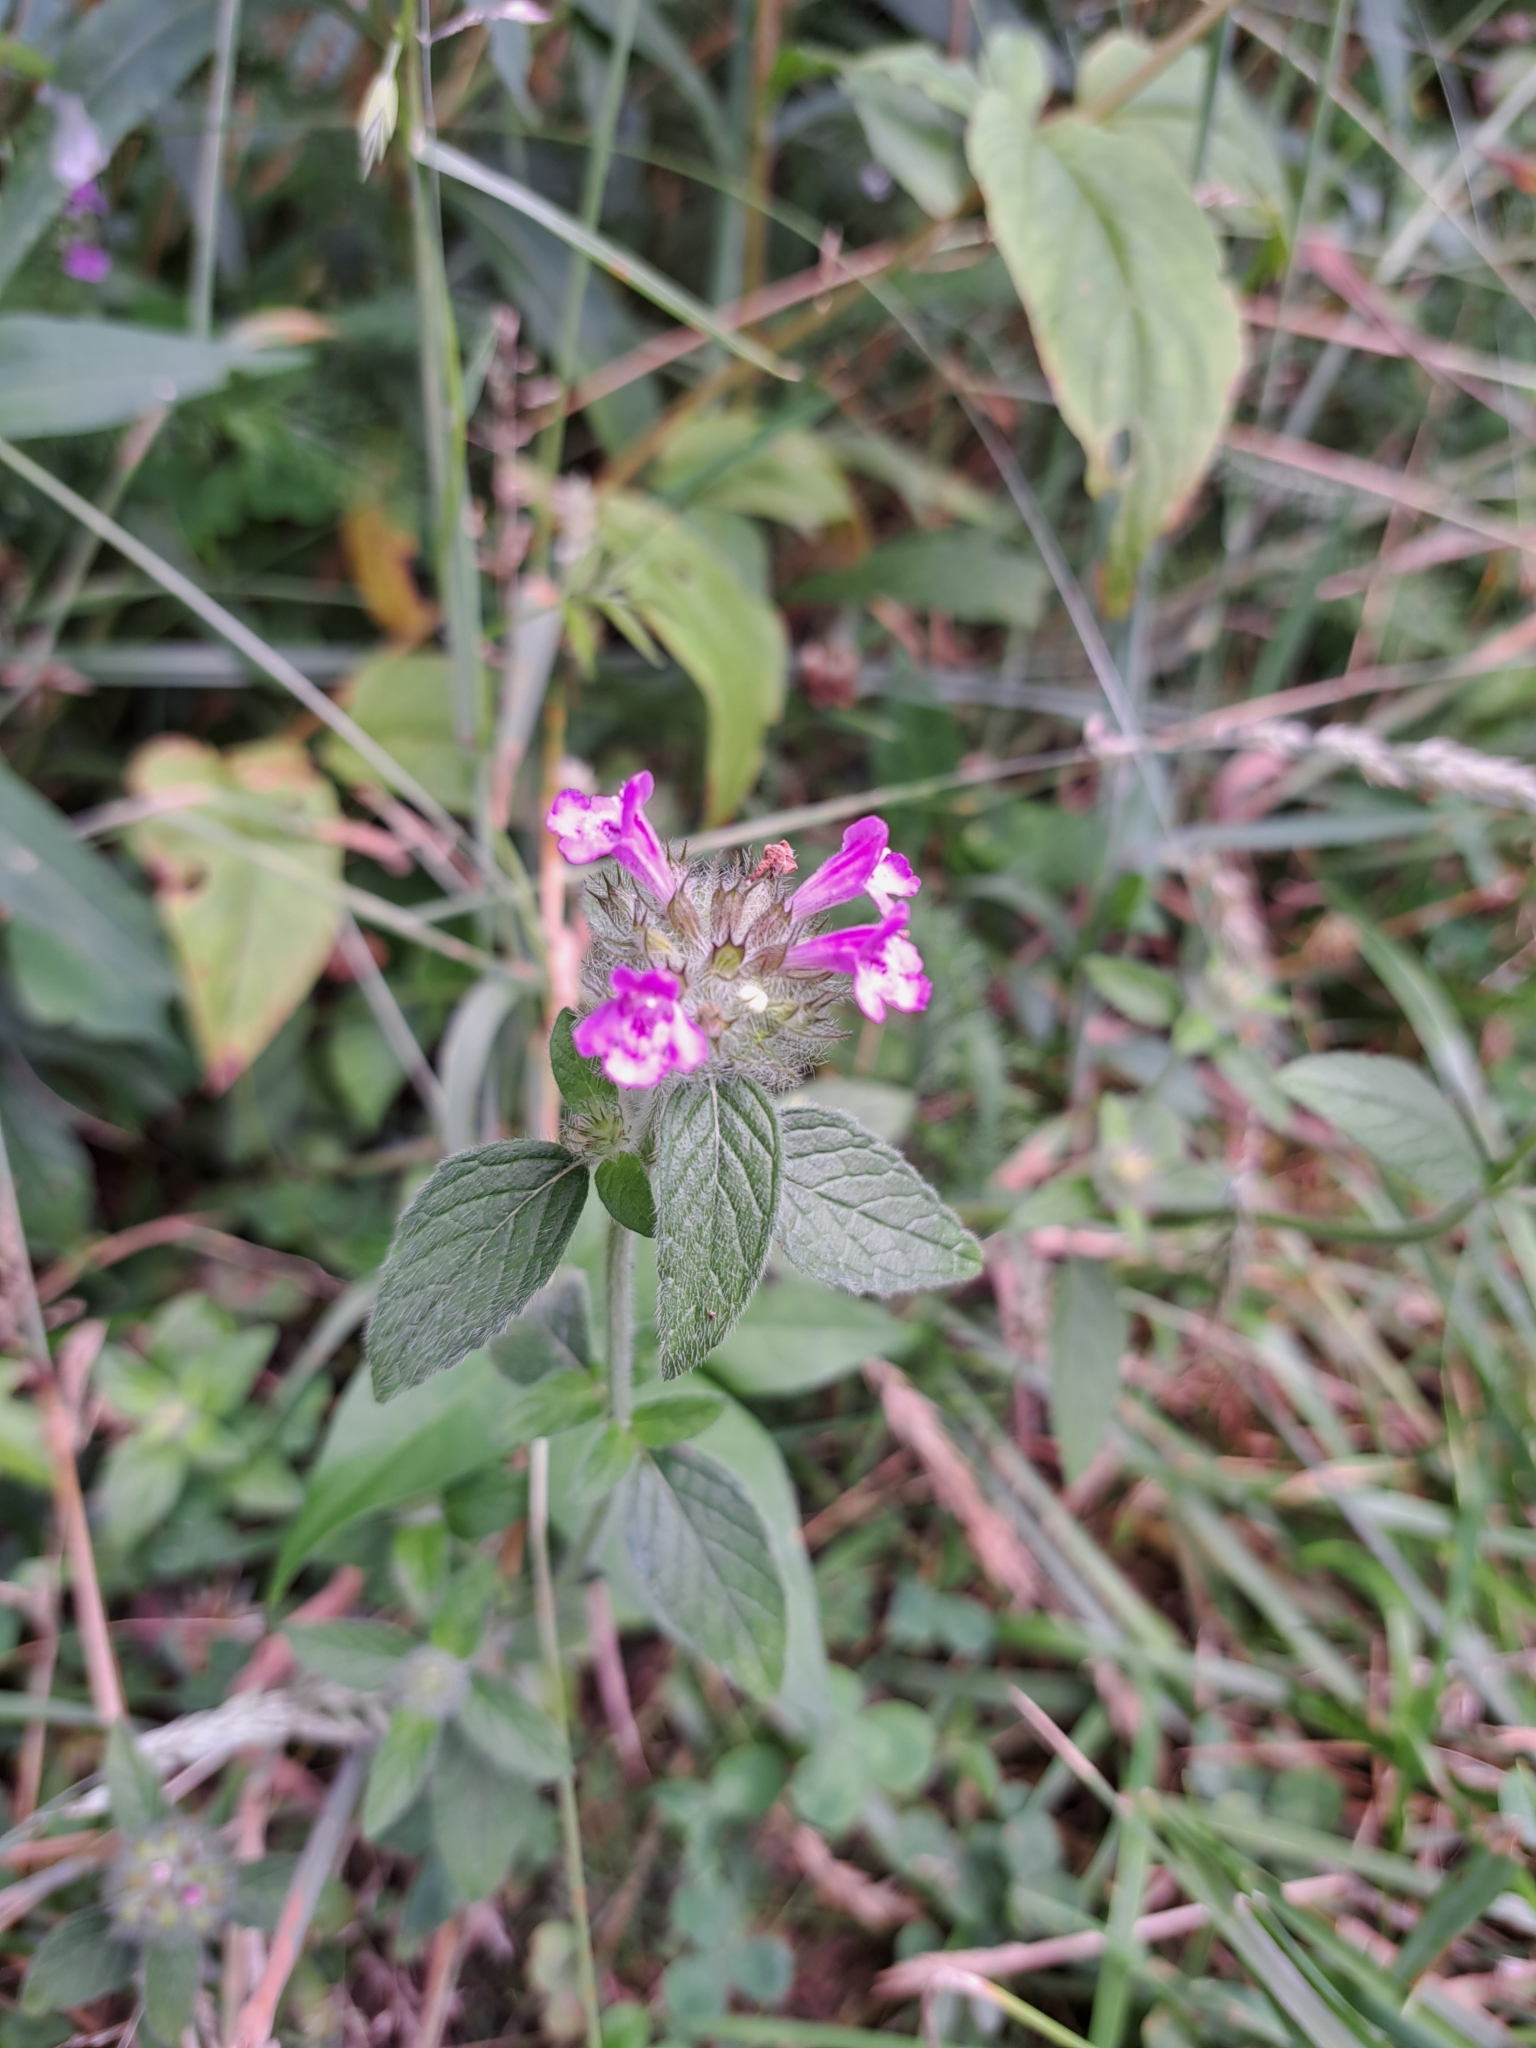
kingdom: Plantae
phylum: Tracheophyta
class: Magnoliopsida
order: Lamiales
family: Lamiaceae
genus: Clinopodium
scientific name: Clinopodium vulgare
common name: Wild basil
